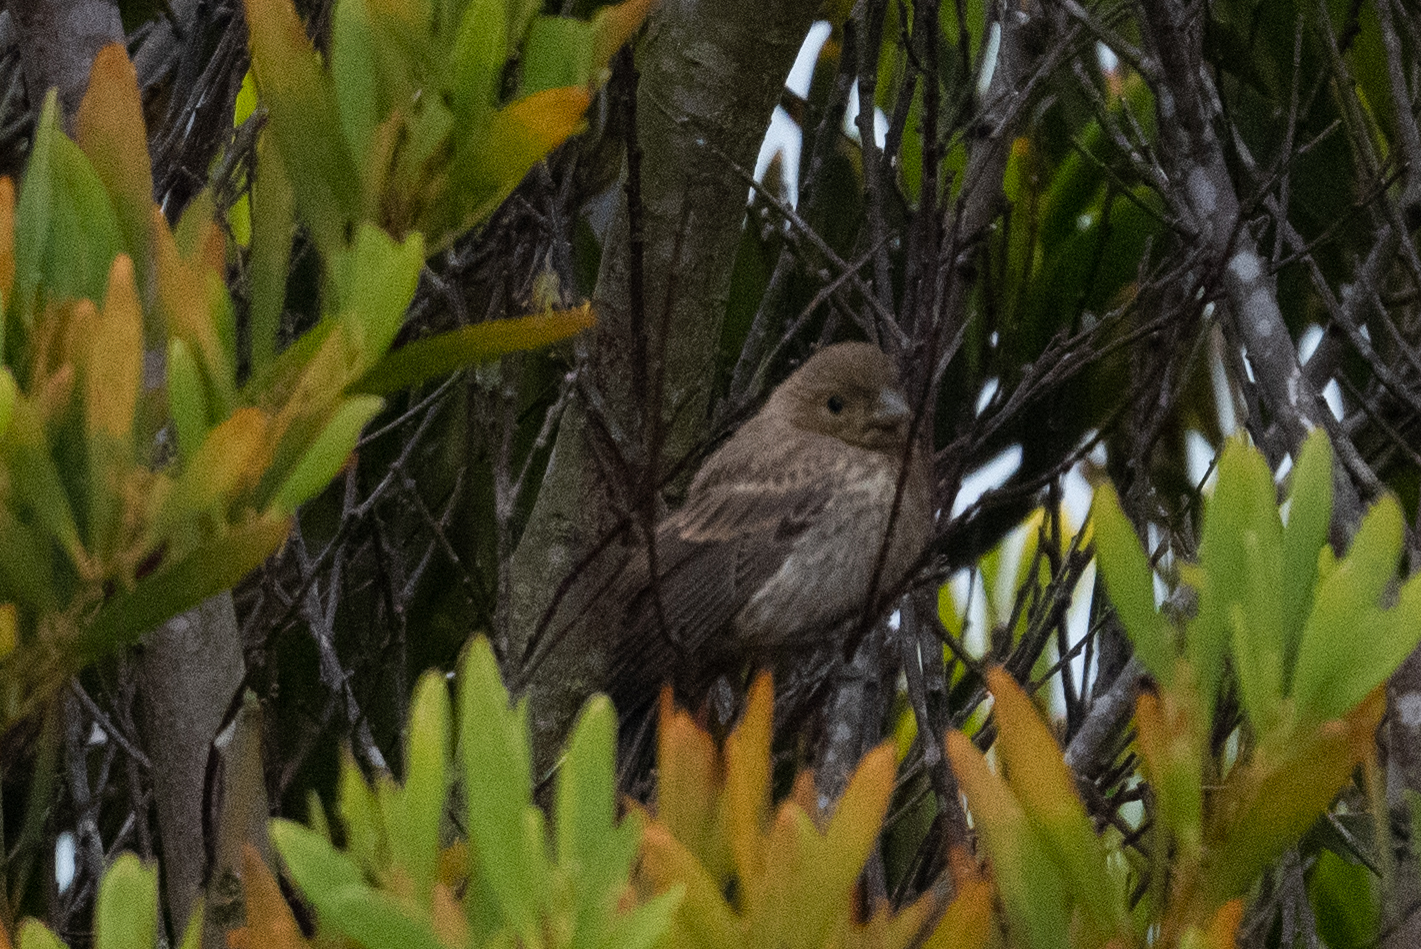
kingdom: Animalia
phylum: Chordata
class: Aves
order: Passeriformes
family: Fringillidae
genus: Haemorhous
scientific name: Haemorhous mexicanus
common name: House finch
